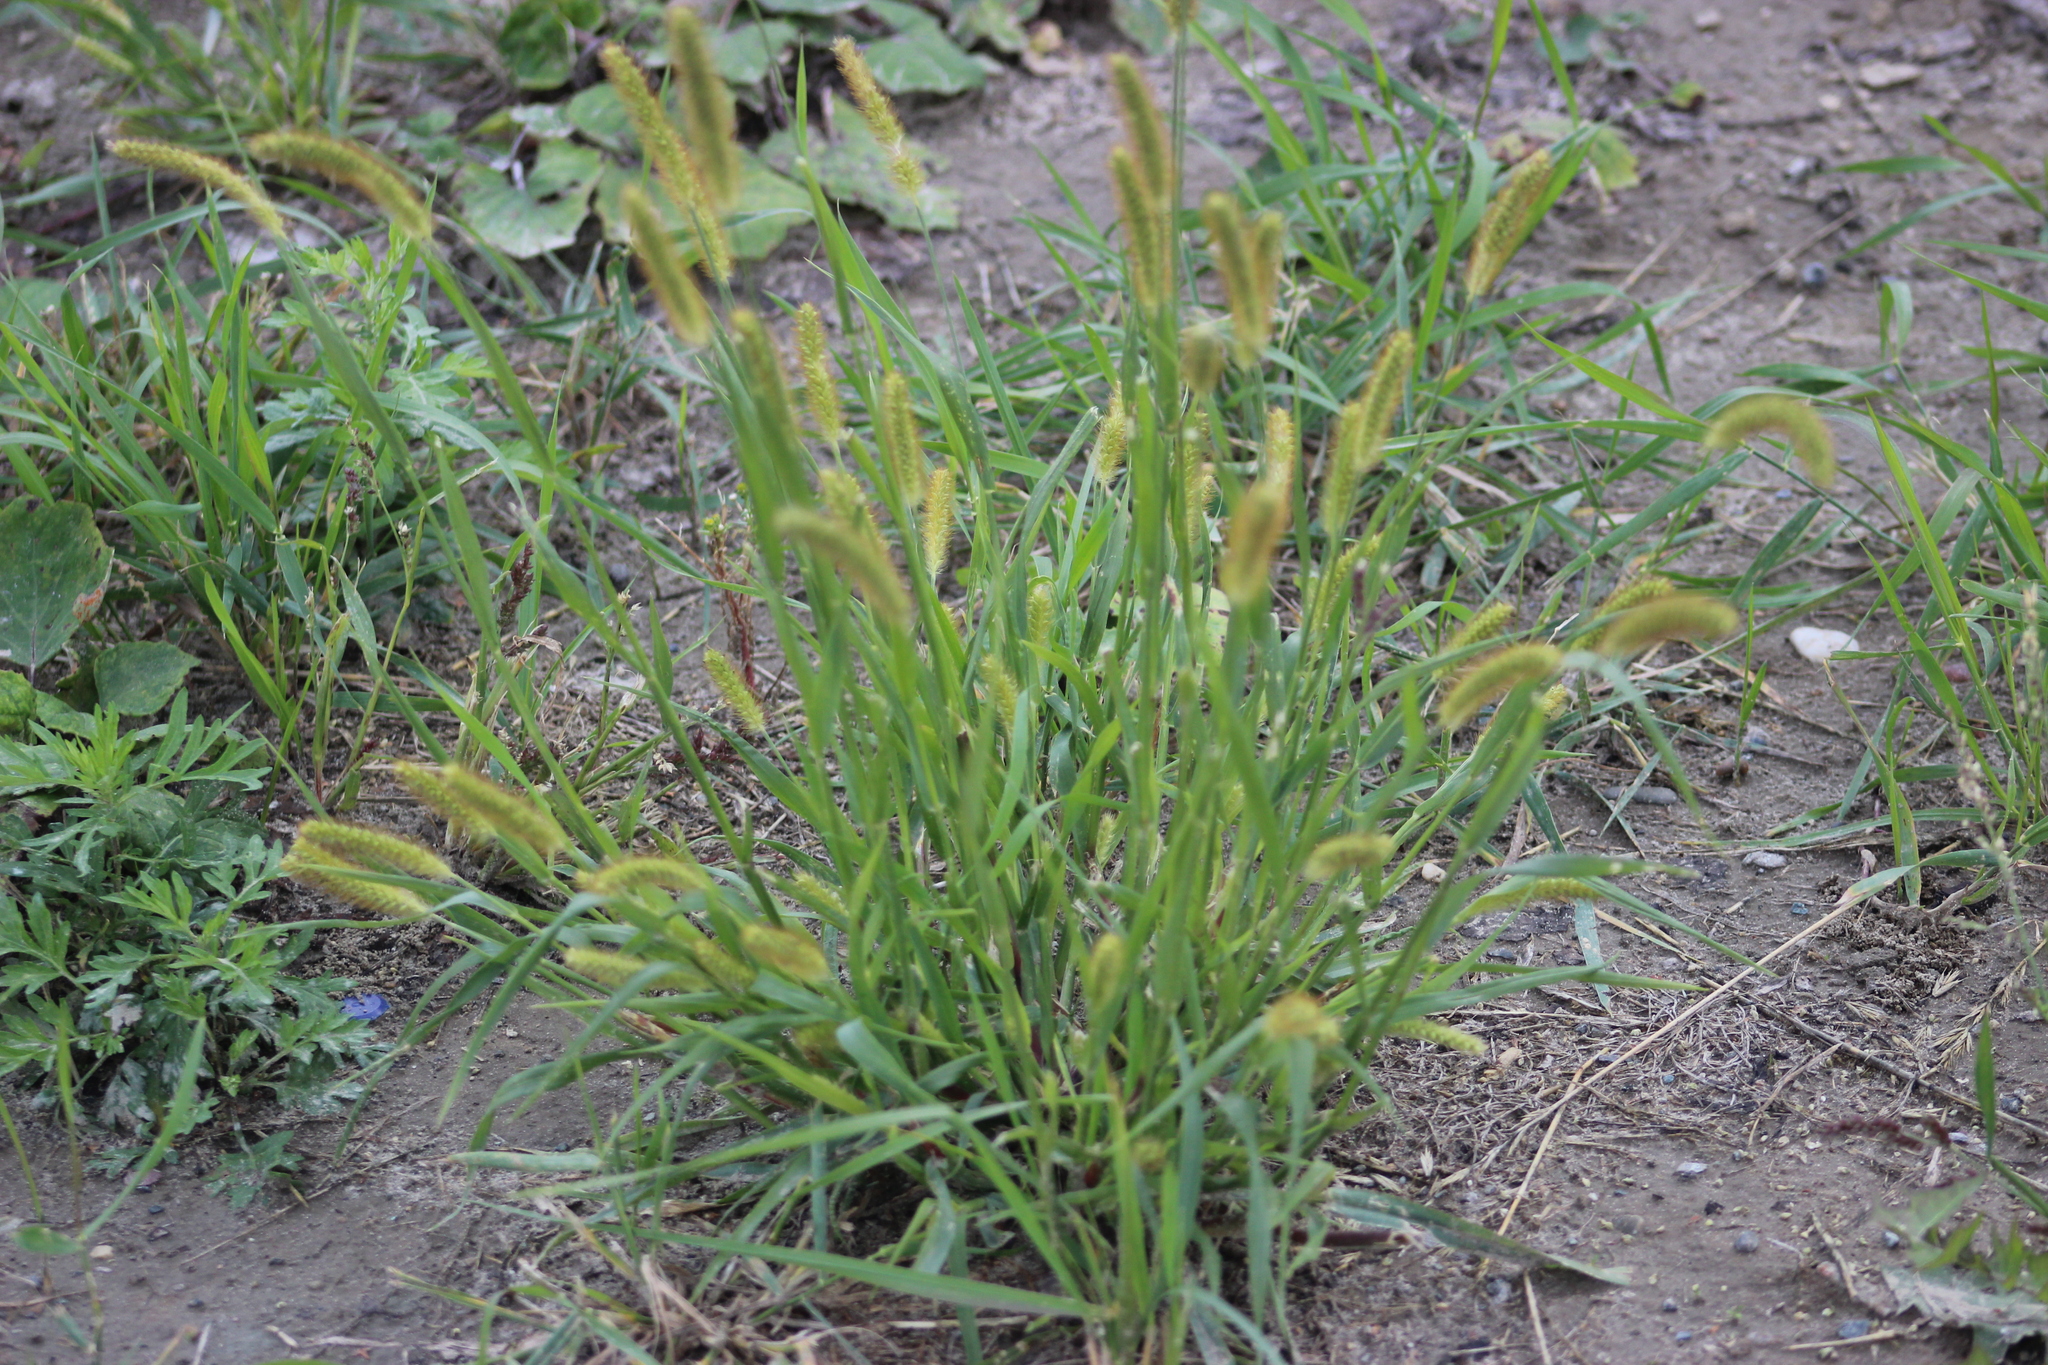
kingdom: Plantae
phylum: Tracheophyta
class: Liliopsida
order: Poales
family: Poaceae
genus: Setaria
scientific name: Setaria pumila
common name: Yellow bristle-grass
